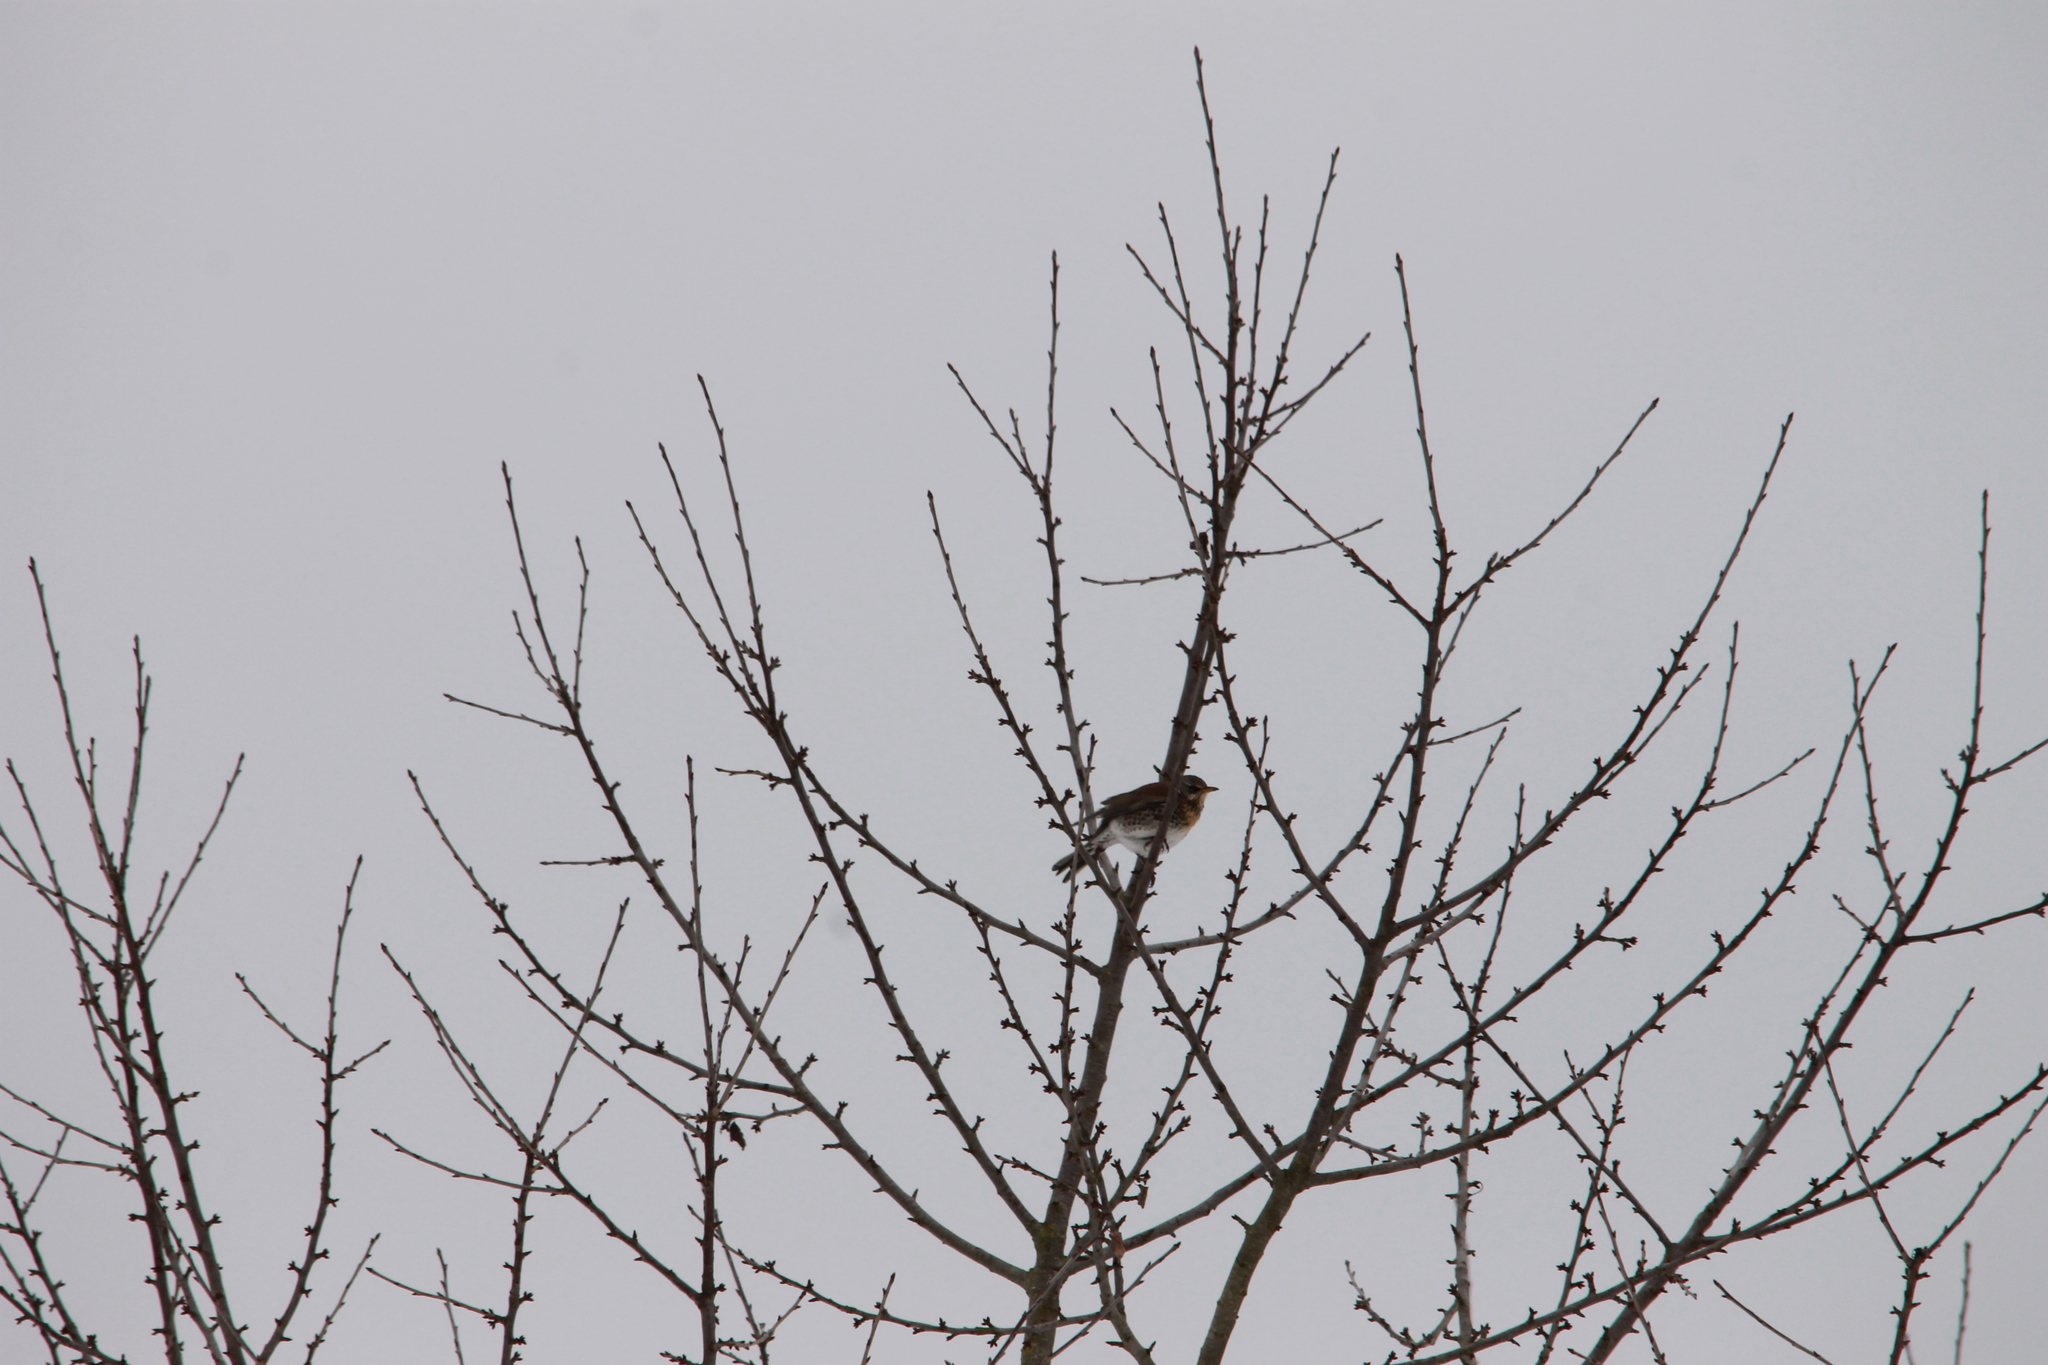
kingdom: Animalia
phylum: Chordata
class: Aves
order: Passeriformes
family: Turdidae
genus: Turdus
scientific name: Turdus pilaris
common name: Fieldfare
